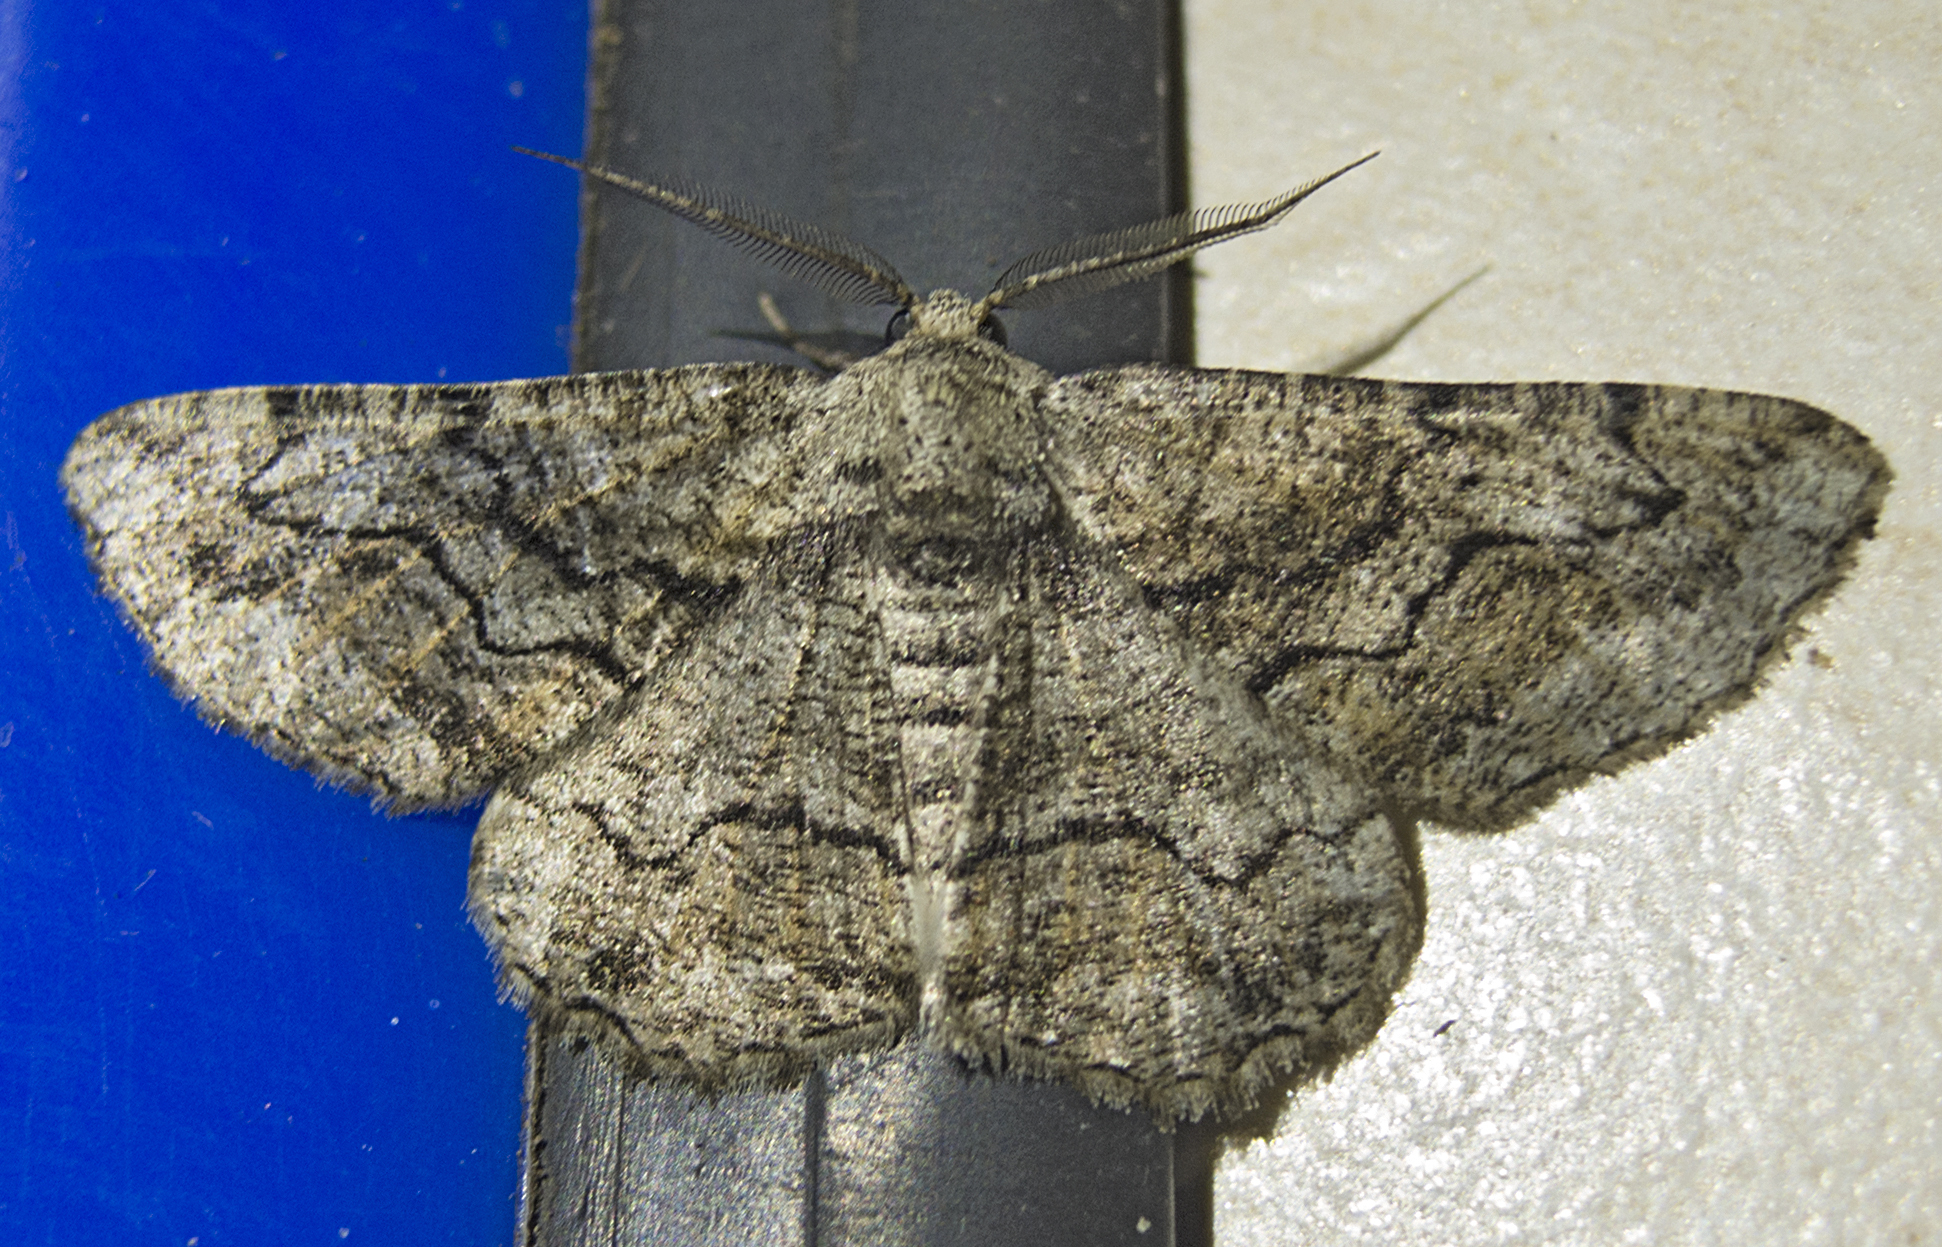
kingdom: Animalia
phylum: Arthropoda
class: Insecta
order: Lepidoptera
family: Geometridae
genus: Synopsia
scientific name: Synopsia sociaria
